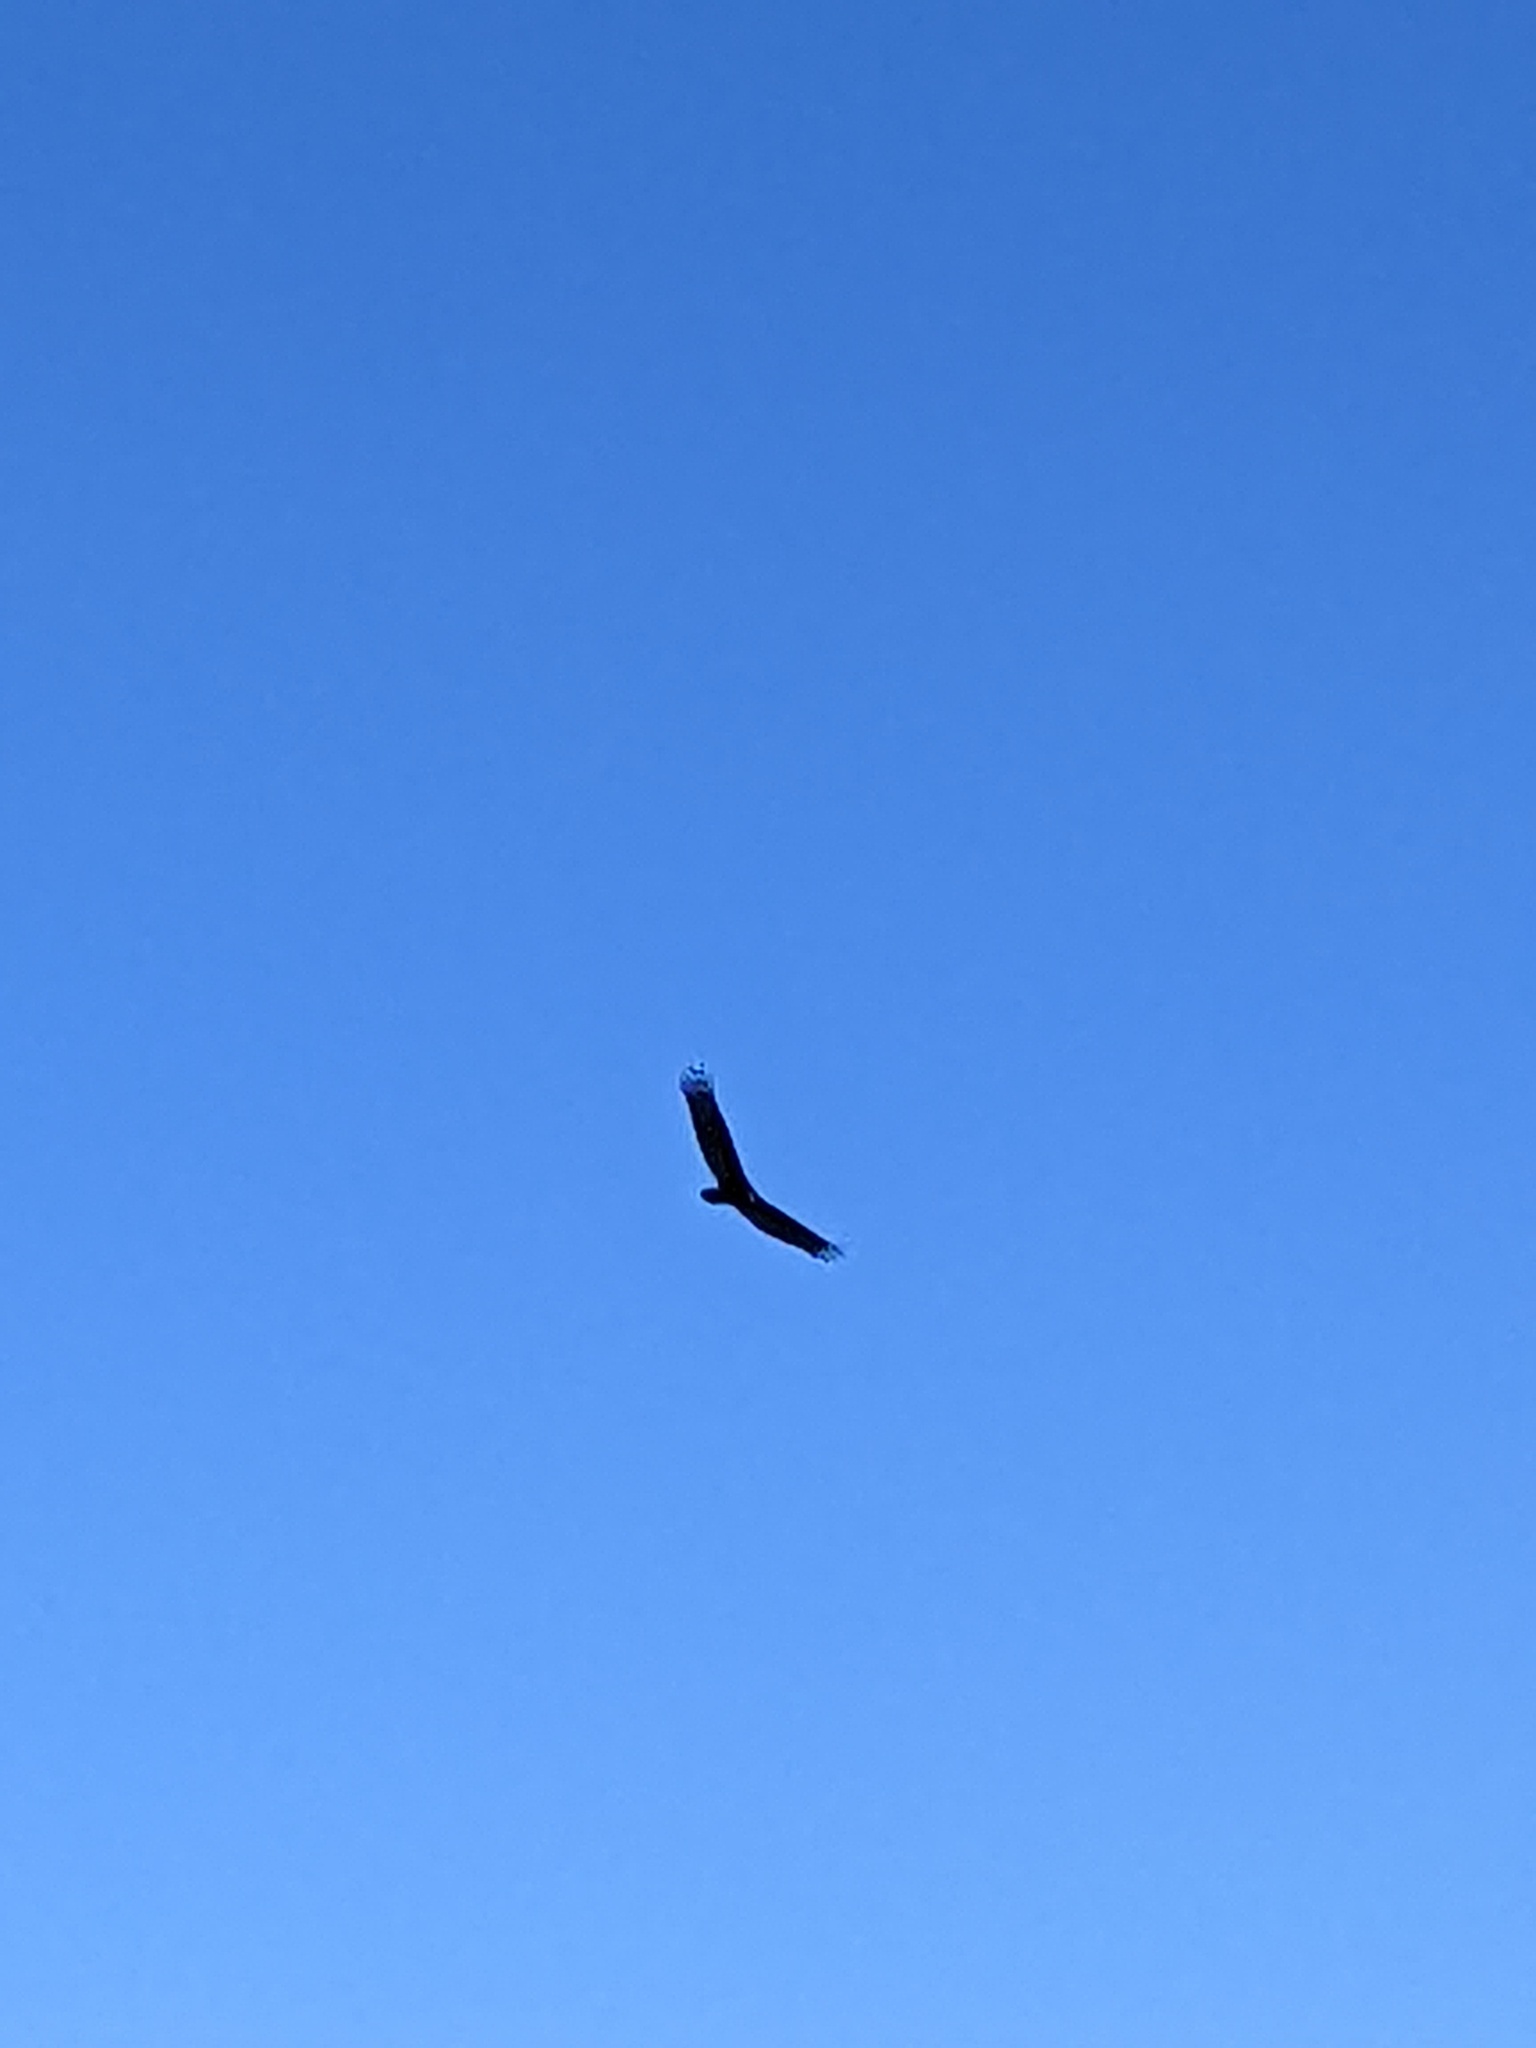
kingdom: Animalia
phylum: Chordata
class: Aves
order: Accipitriformes
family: Cathartidae
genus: Cathartes
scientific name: Cathartes aura
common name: Turkey vulture
